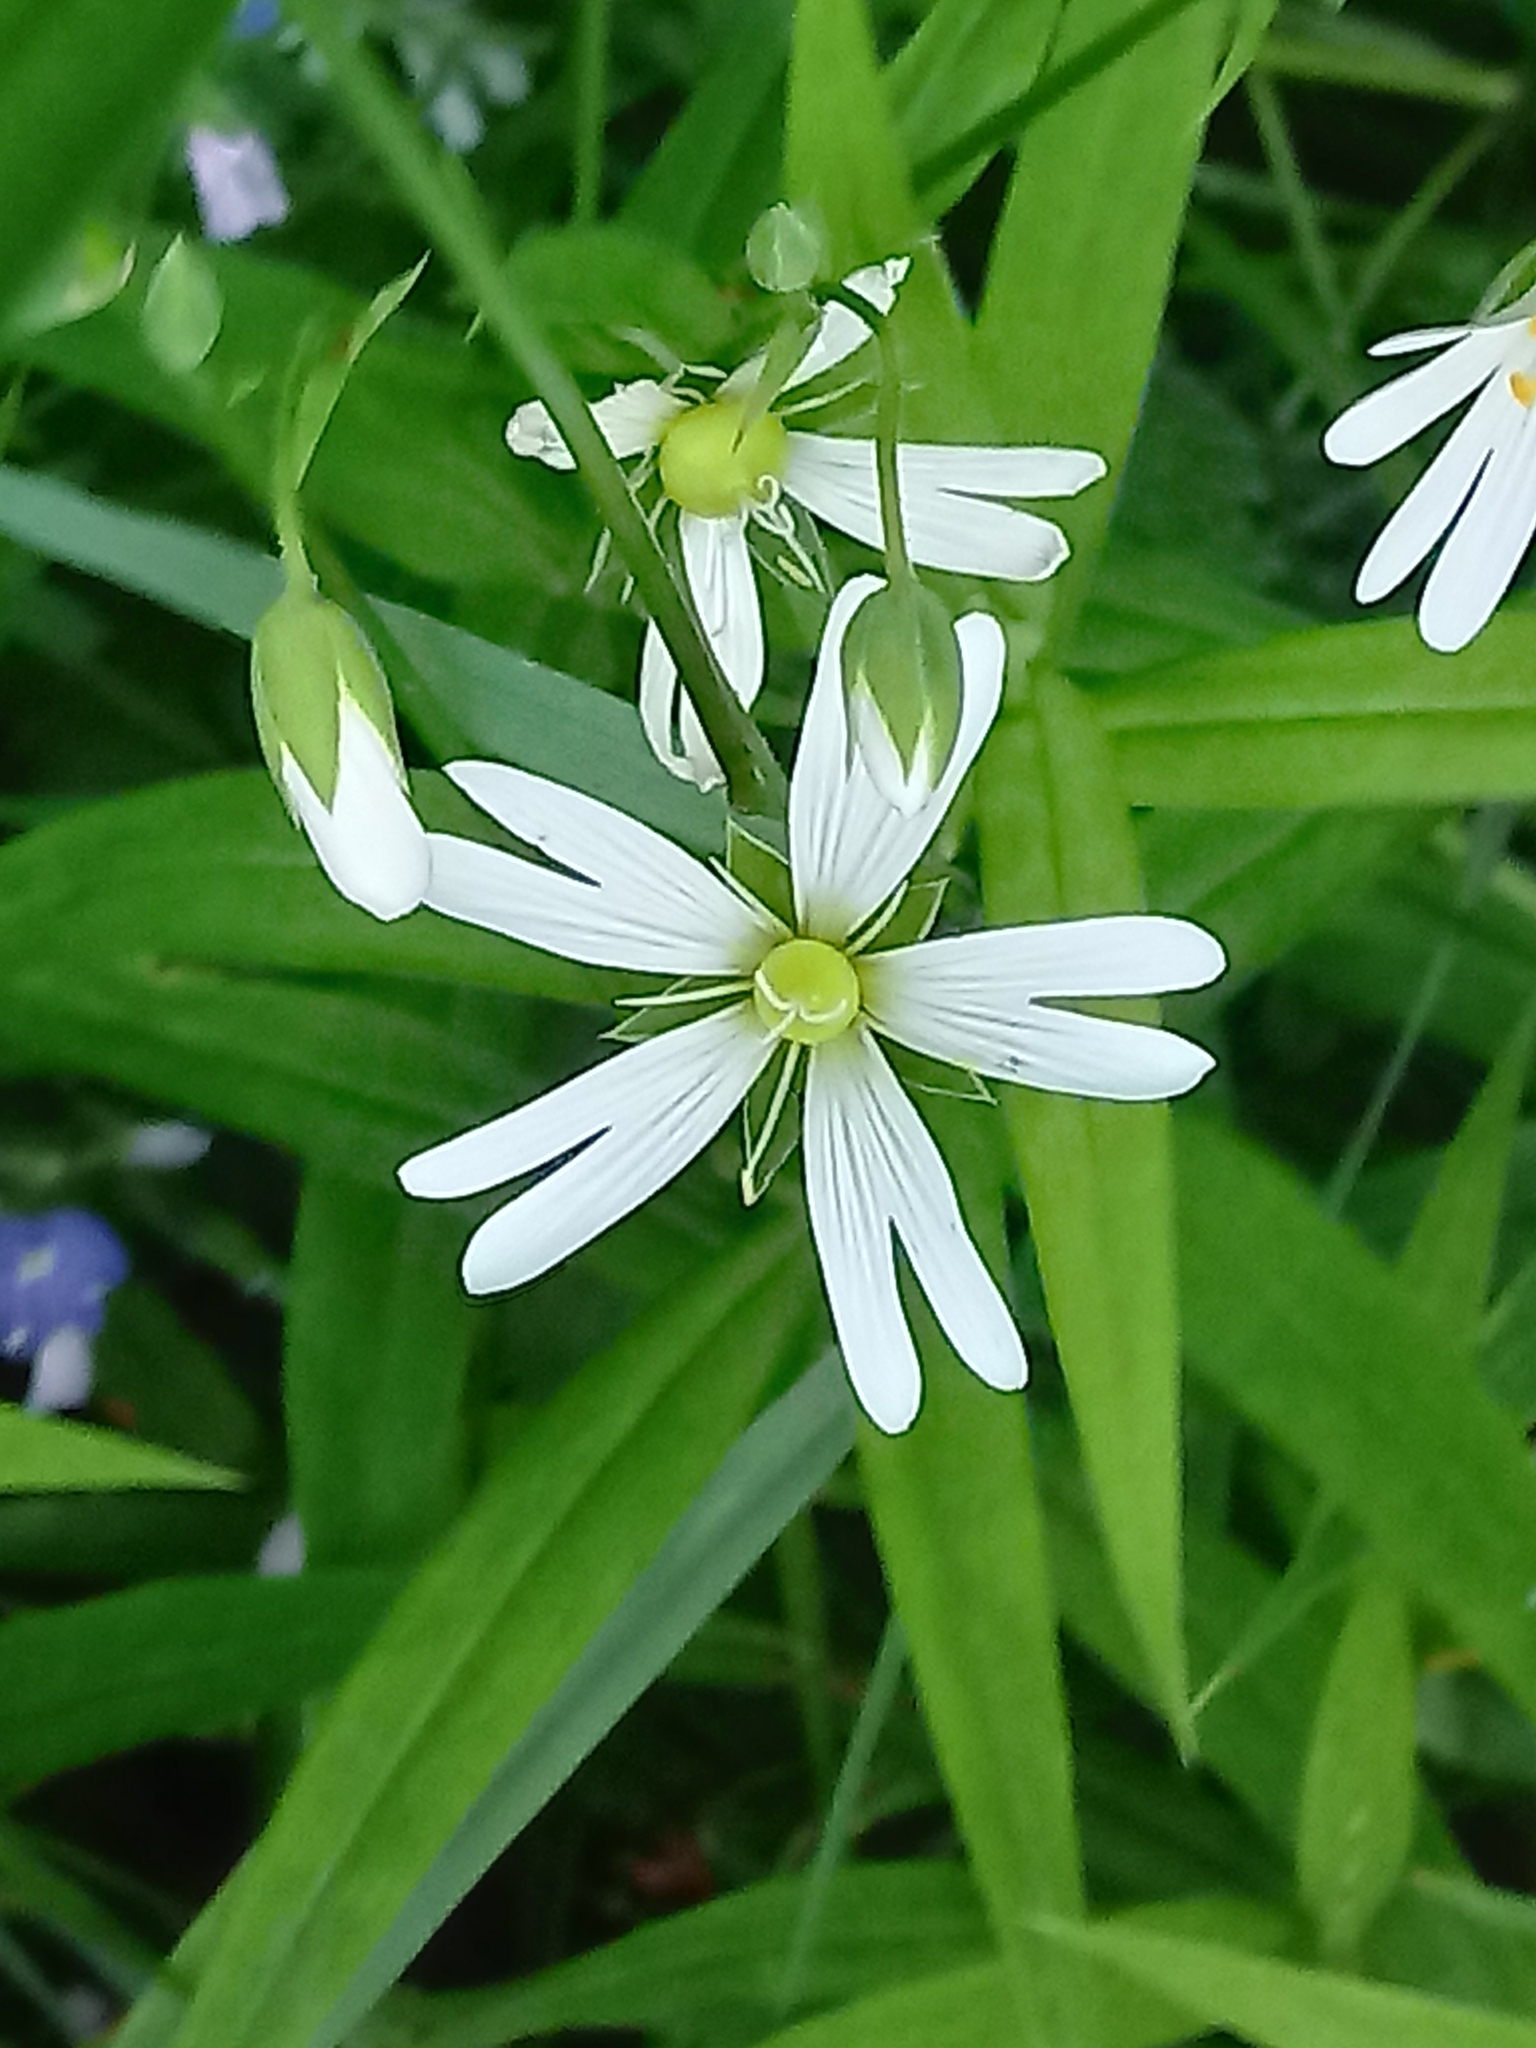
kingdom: Plantae
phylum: Tracheophyta
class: Magnoliopsida
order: Caryophyllales
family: Caryophyllaceae
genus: Rabelera
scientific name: Rabelera holostea
